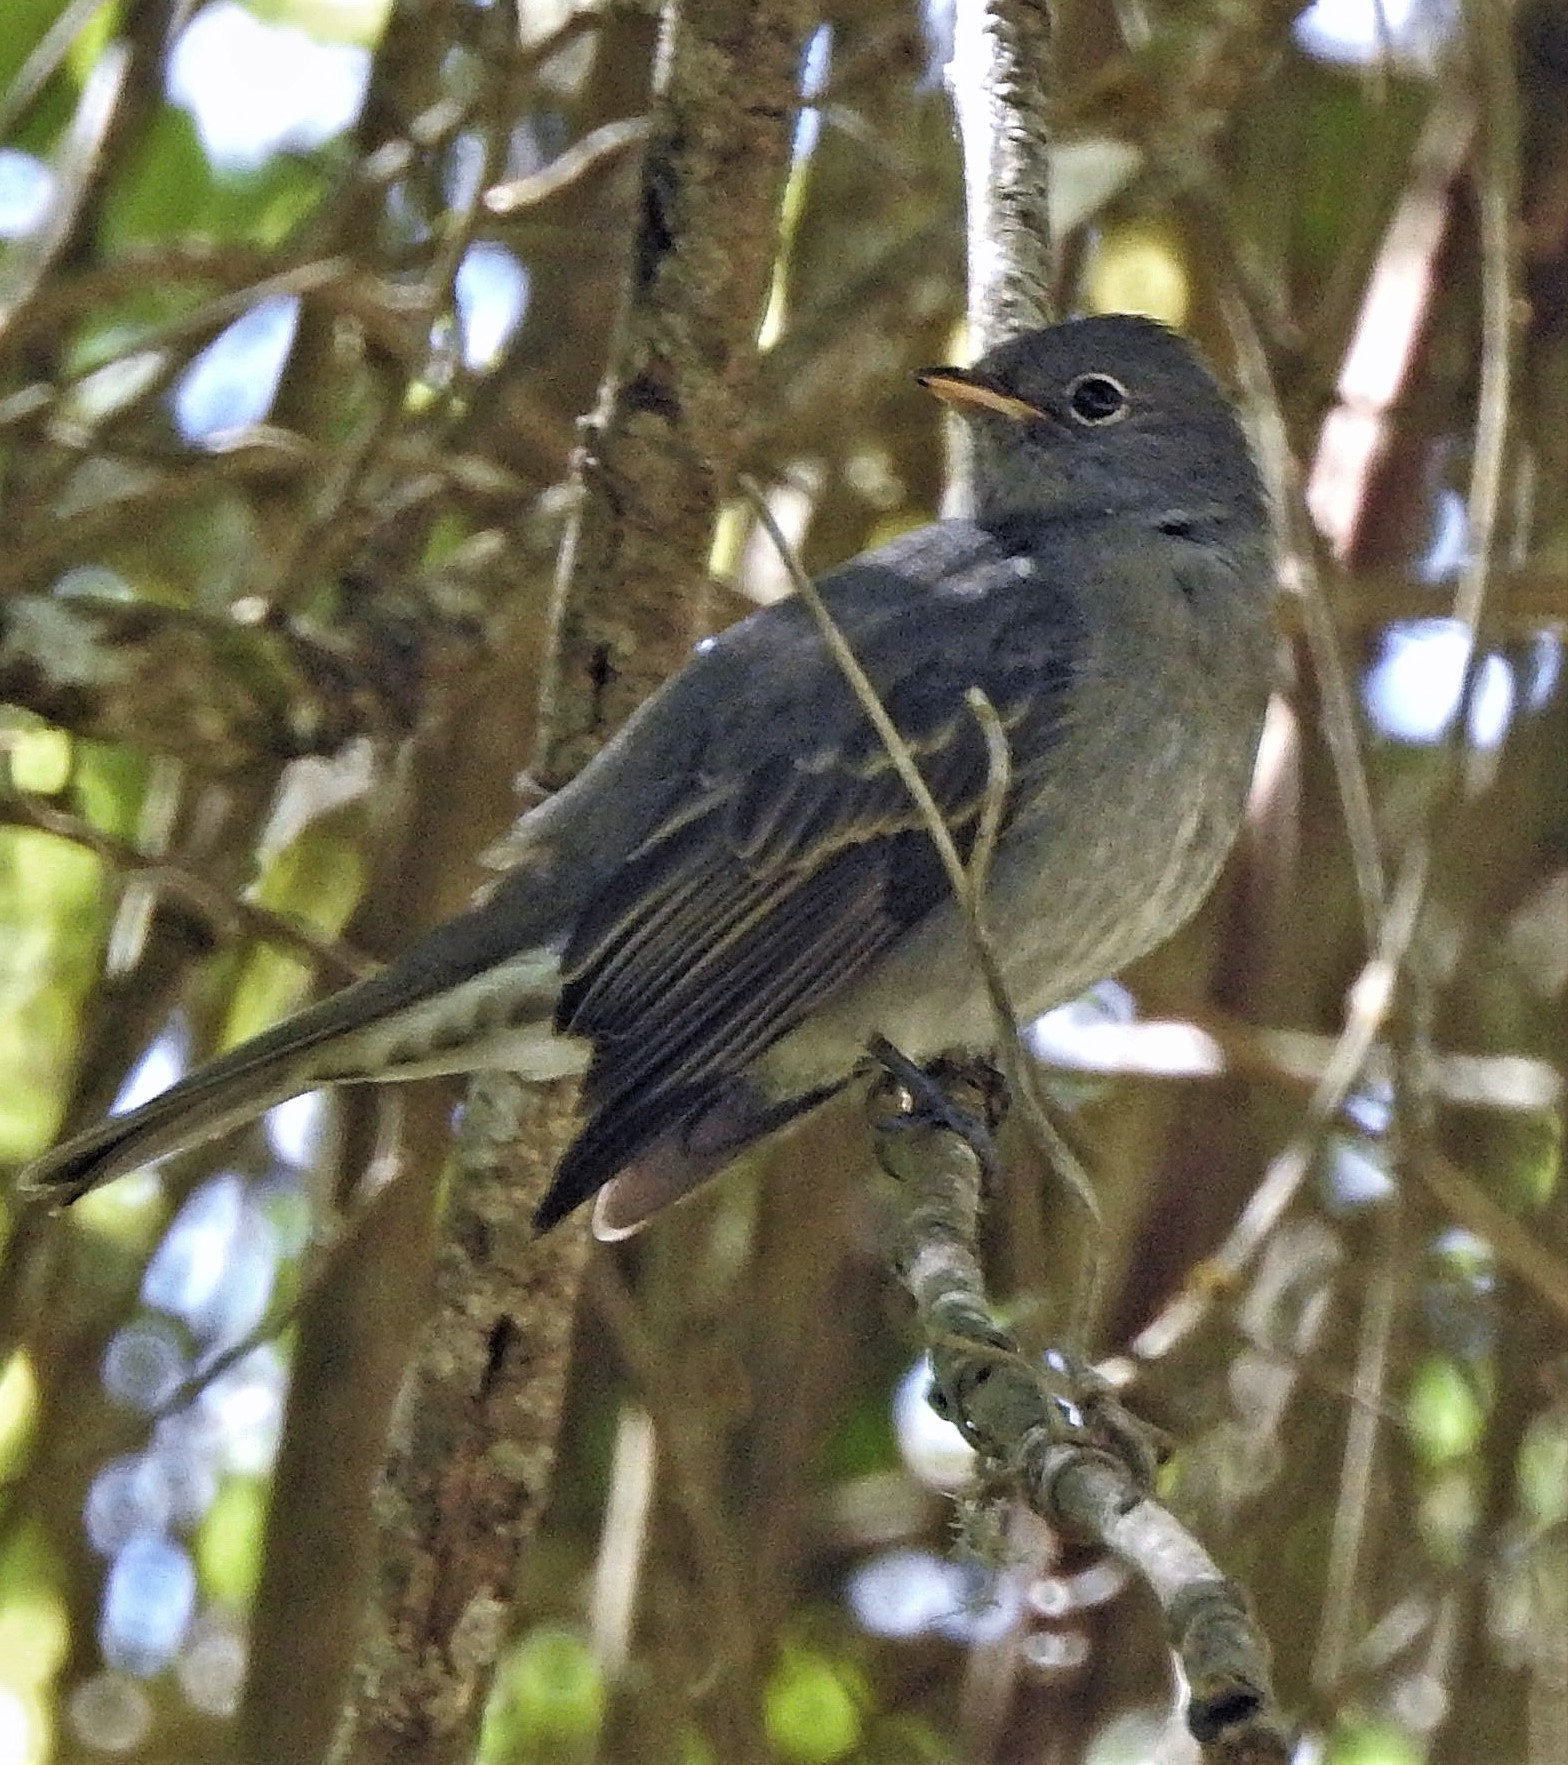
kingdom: Animalia
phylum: Chordata
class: Aves
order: Passeriformes
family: Tyrannidae
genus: Elaenia
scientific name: Elaenia strepera
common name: Slaty elaenia
